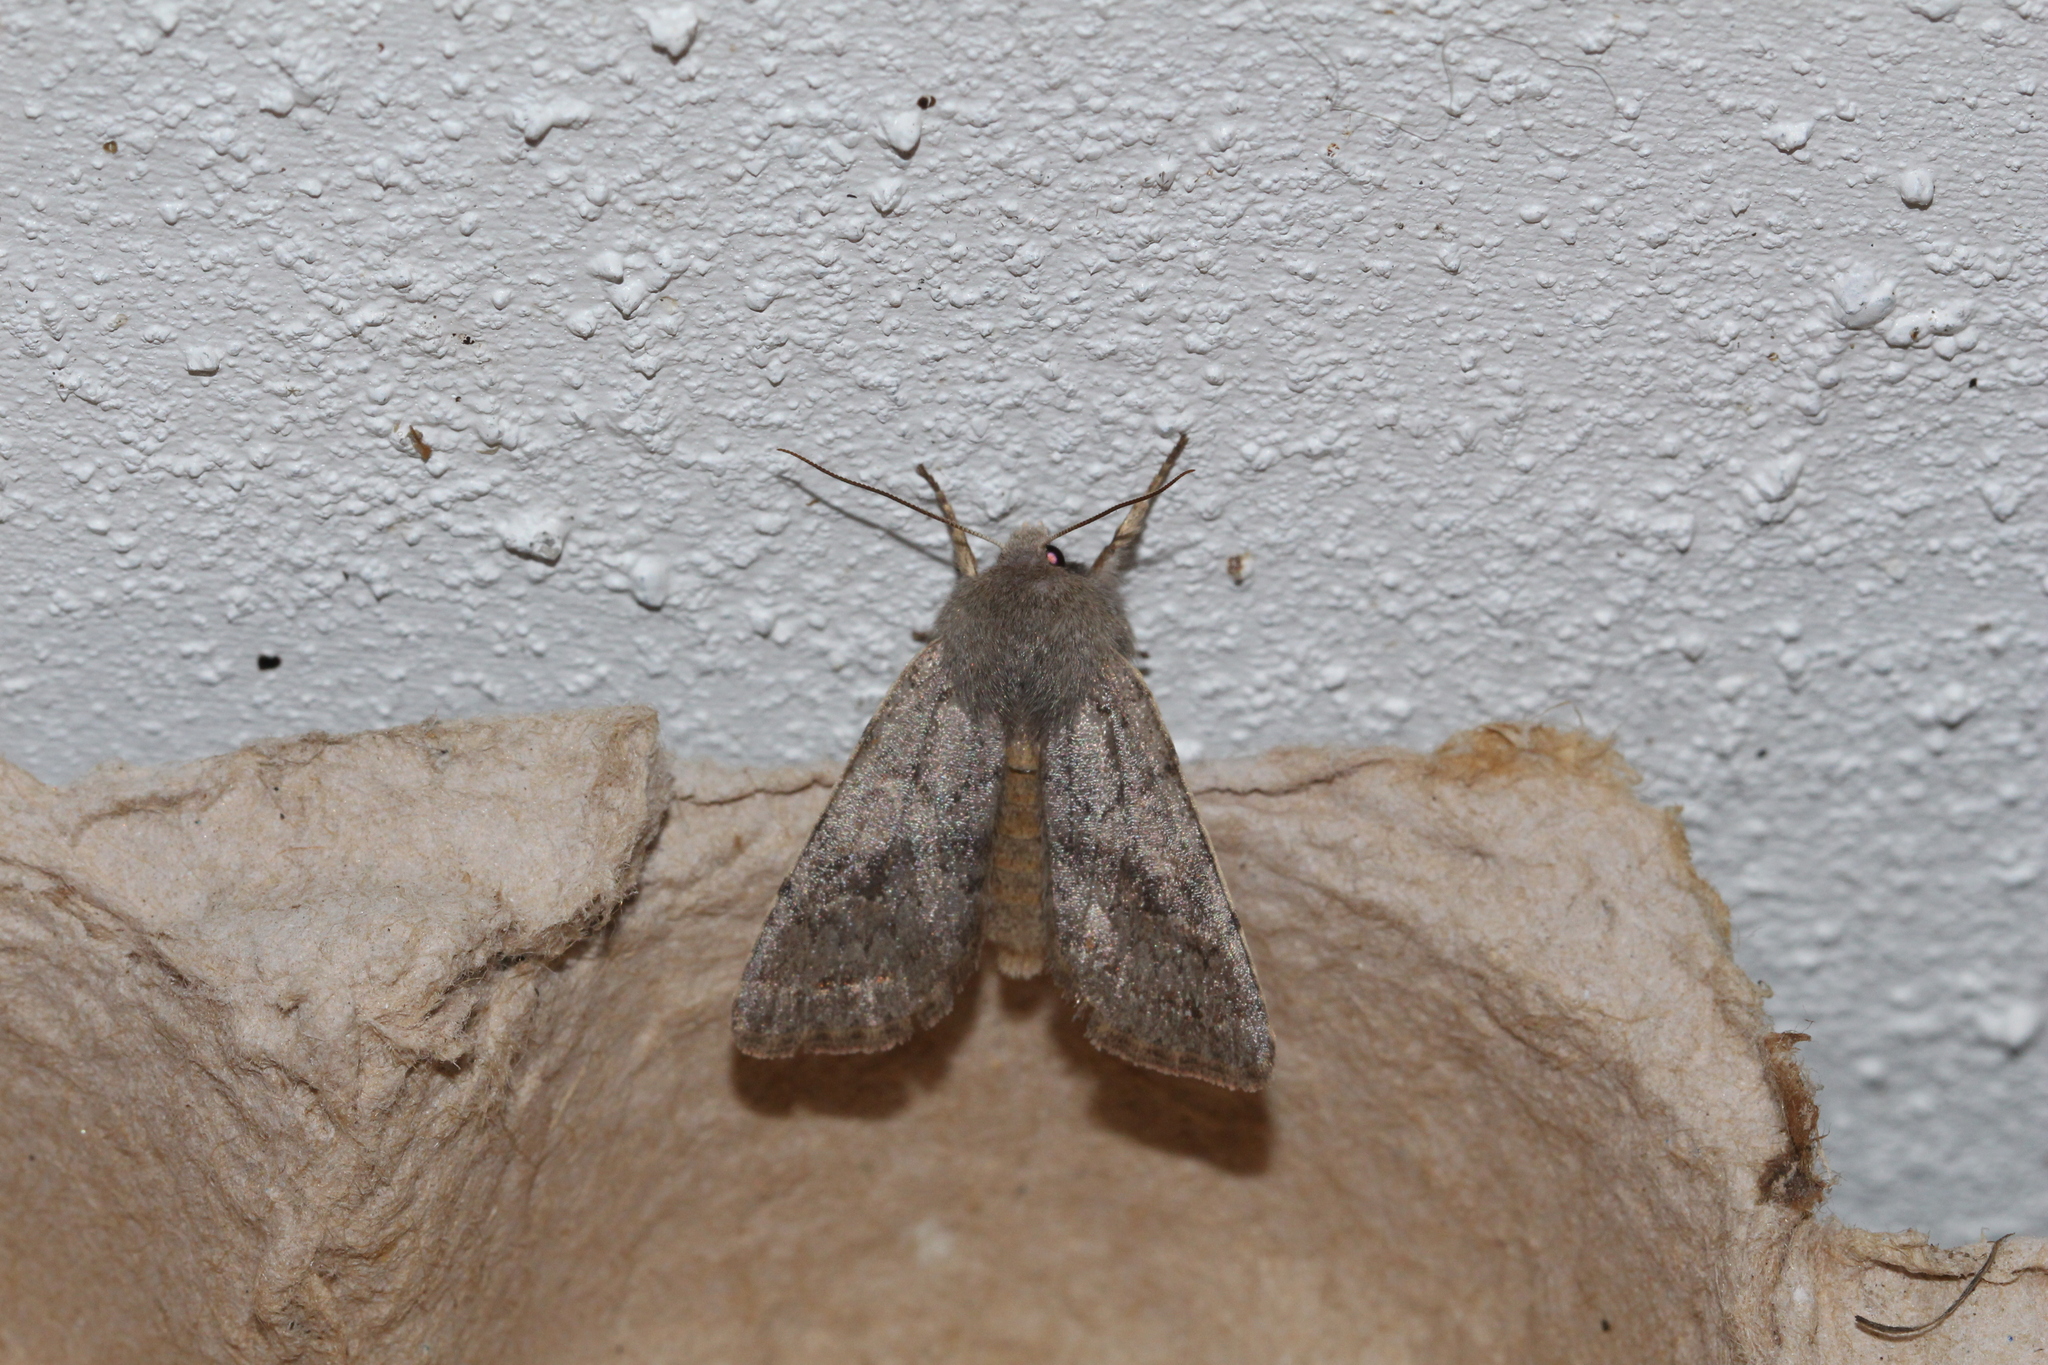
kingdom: Animalia
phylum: Arthropoda
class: Insecta
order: Lepidoptera
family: Noctuidae
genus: Orthosia
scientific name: Orthosia incerta
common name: Clouded drab
